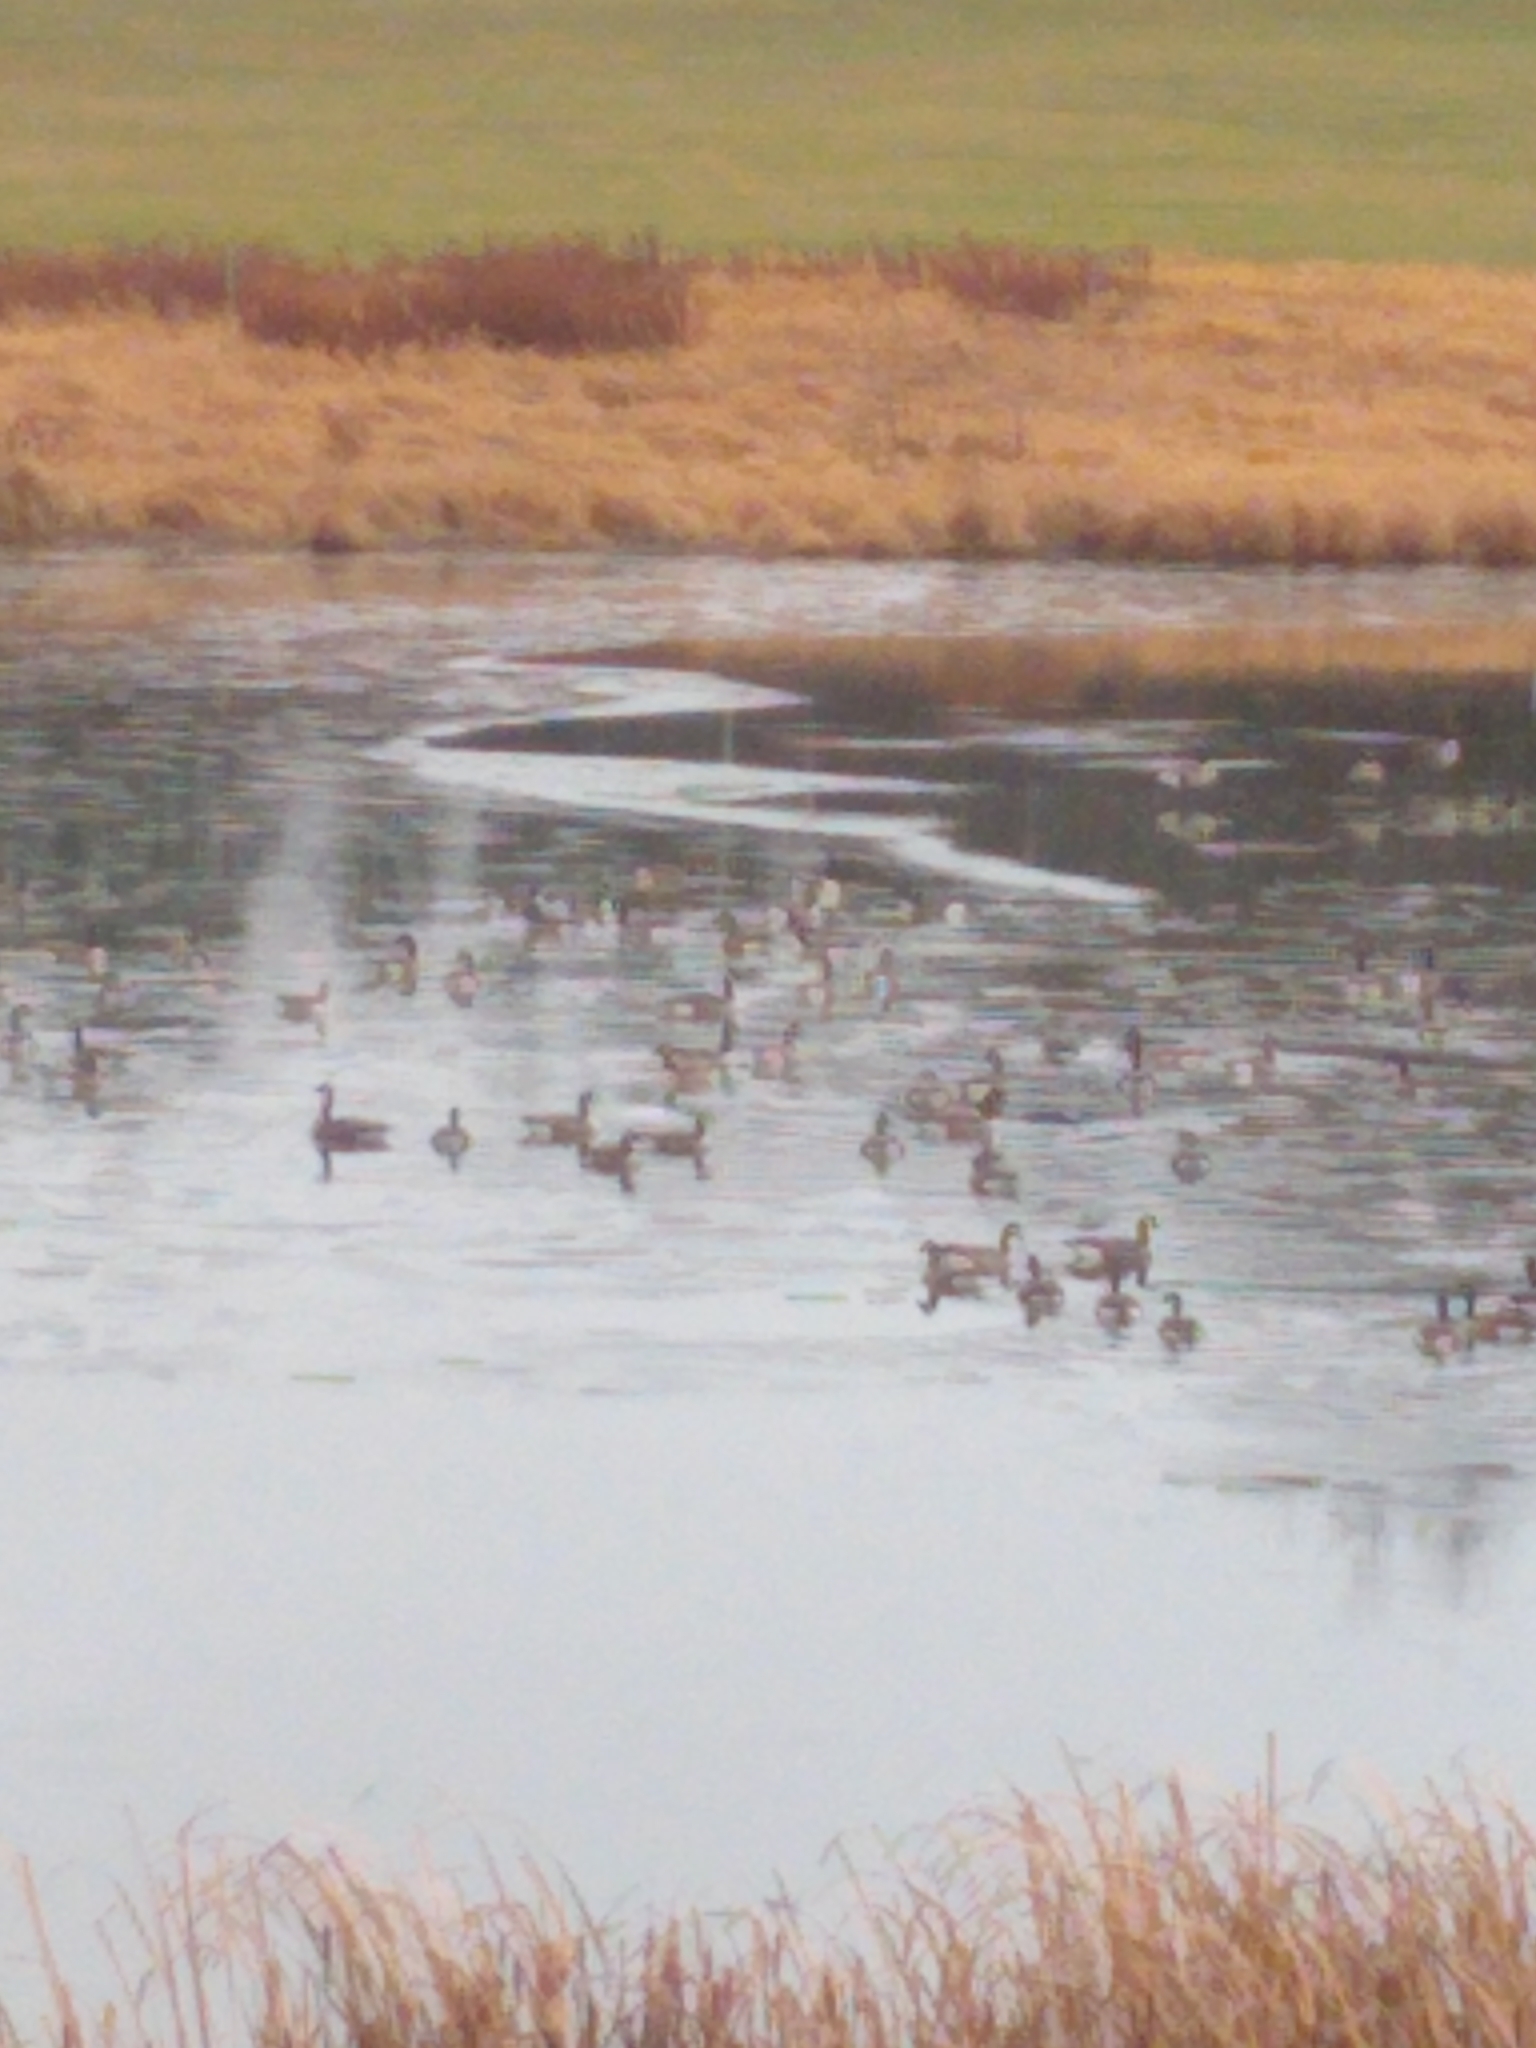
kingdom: Animalia
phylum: Chordata
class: Aves
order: Anseriformes
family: Anatidae
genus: Branta
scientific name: Branta canadensis
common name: Canada goose
